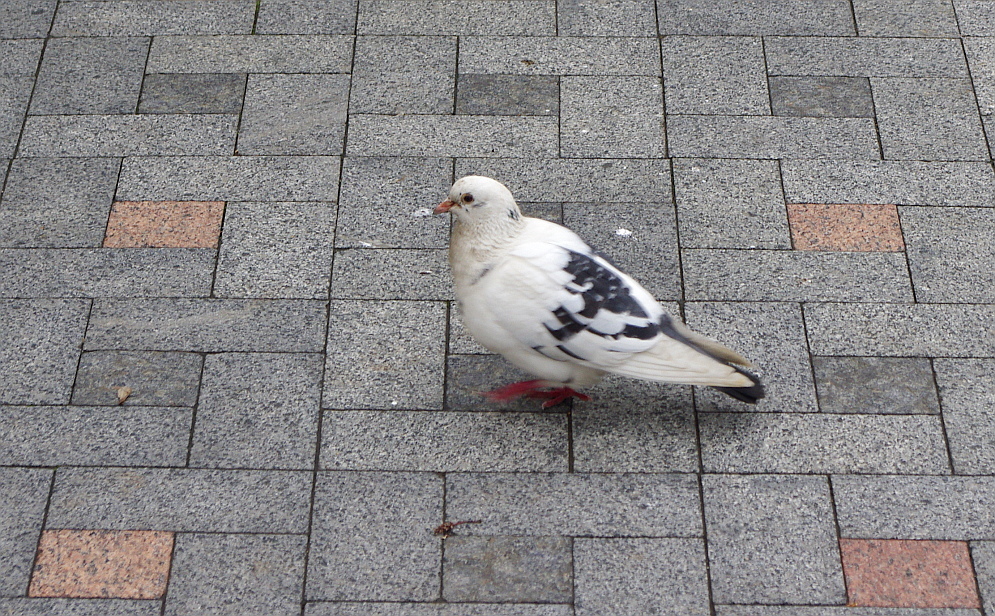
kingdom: Animalia
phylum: Chordata
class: Aves
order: Columbiformes
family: Columbidae
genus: Columba
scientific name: Columba livia
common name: Rock pigeon
